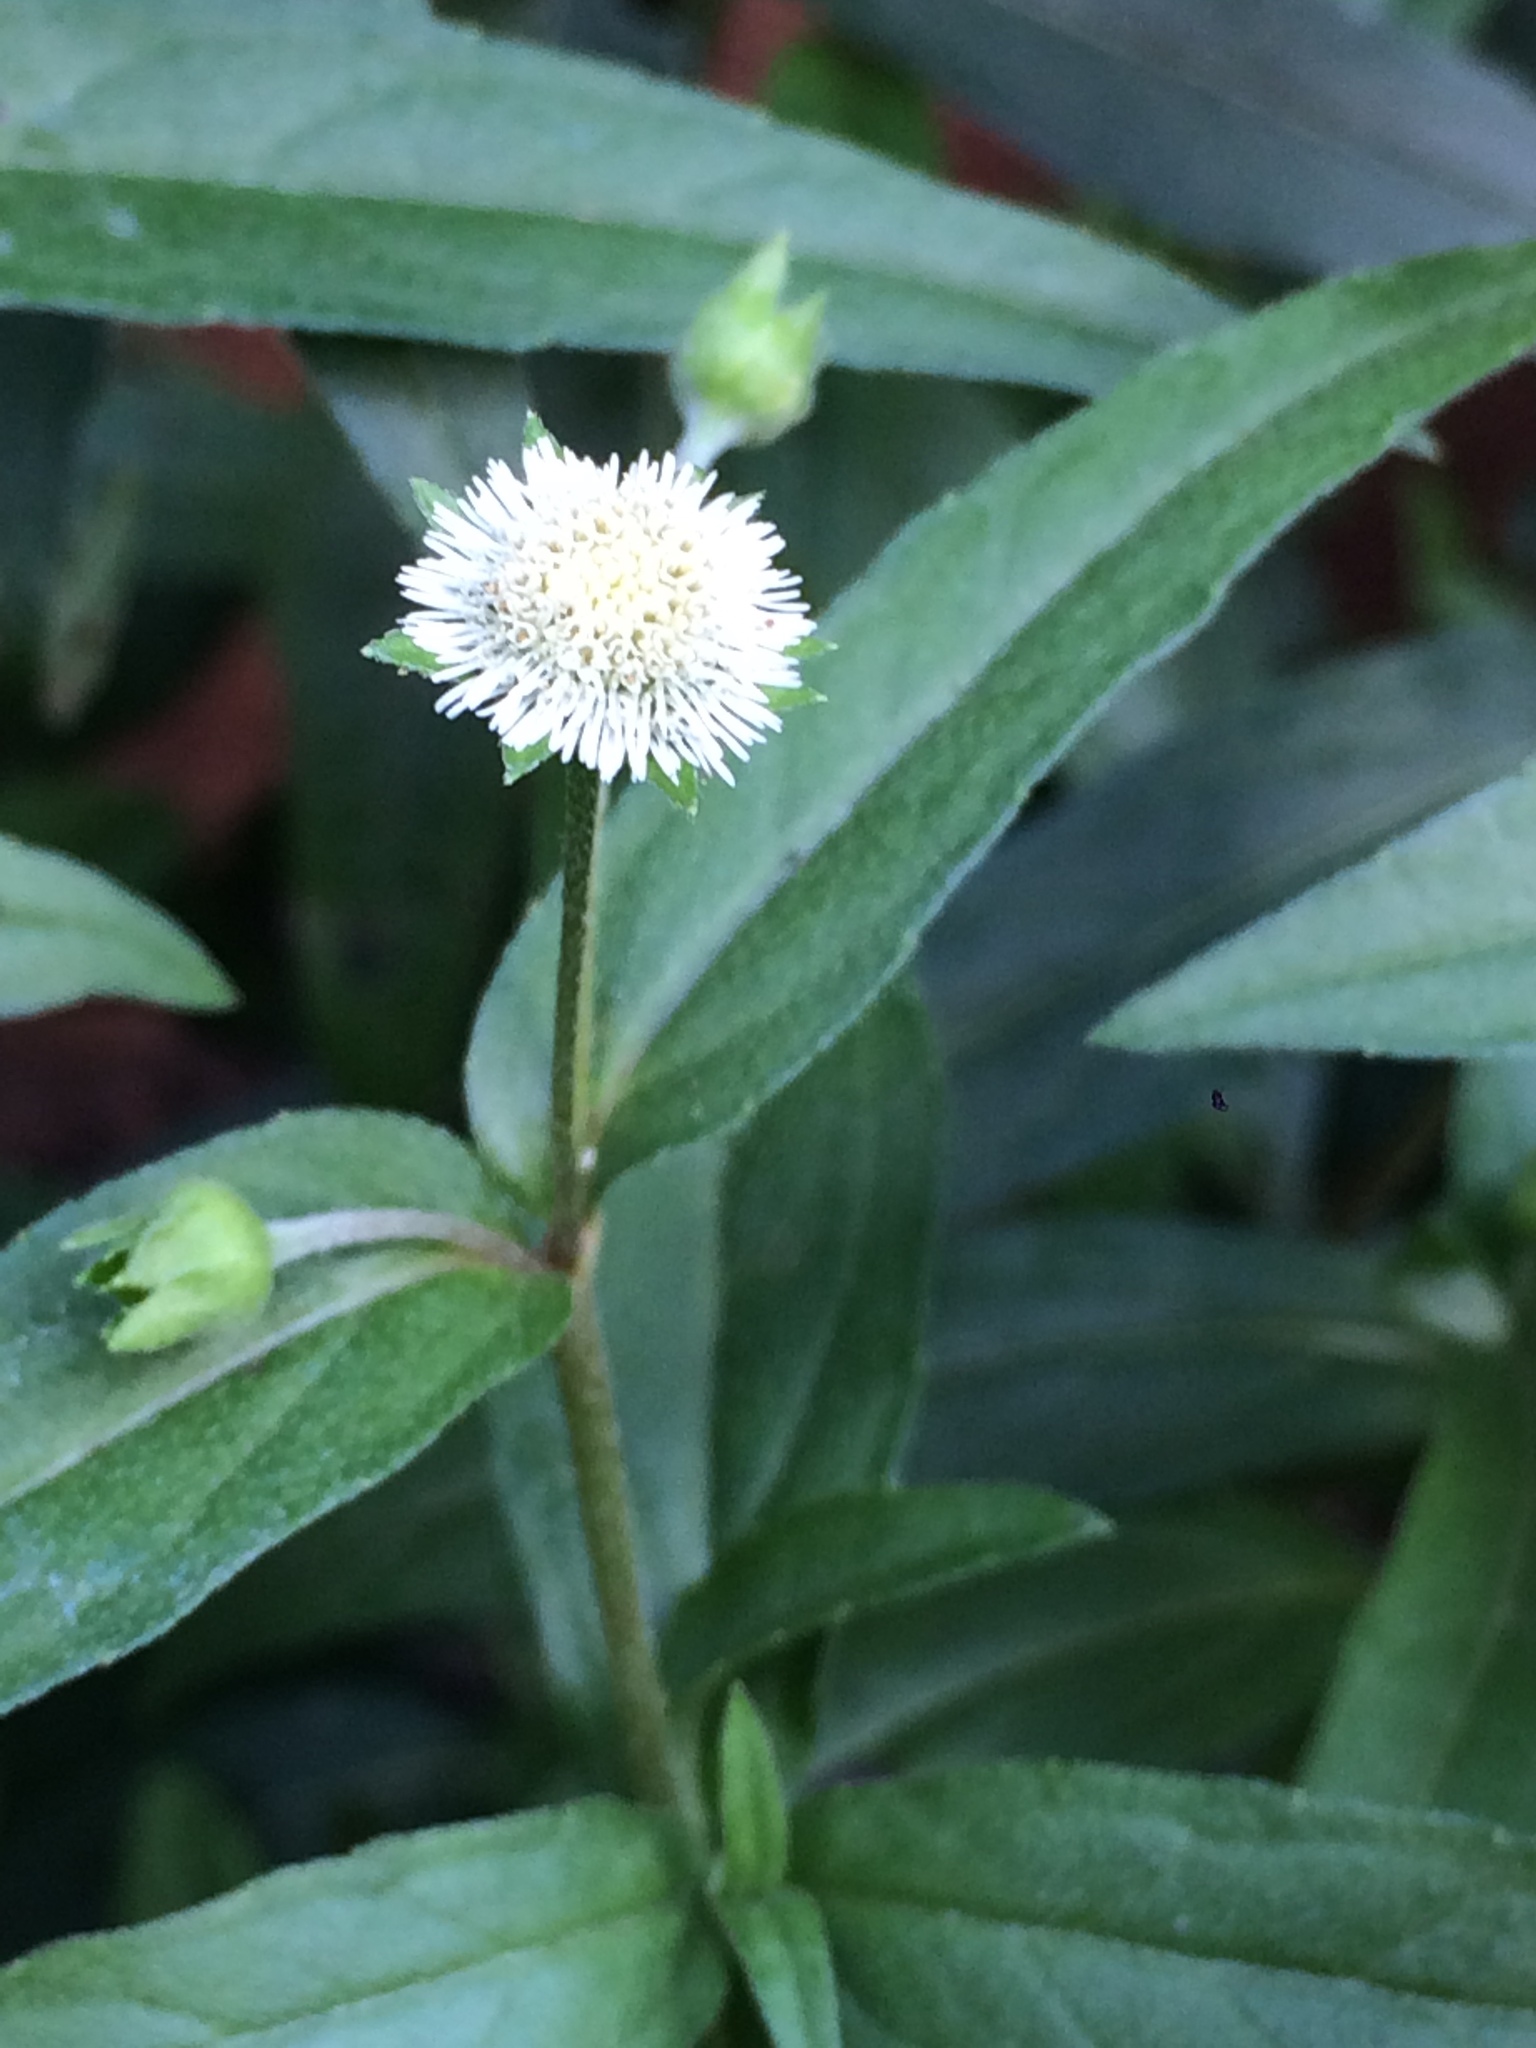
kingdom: Plantae
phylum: Tracheophyta
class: Magnoliopsida
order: Asterales
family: Asteraceae
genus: Eclipta
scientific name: Eclipta prostrata
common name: False daisy
